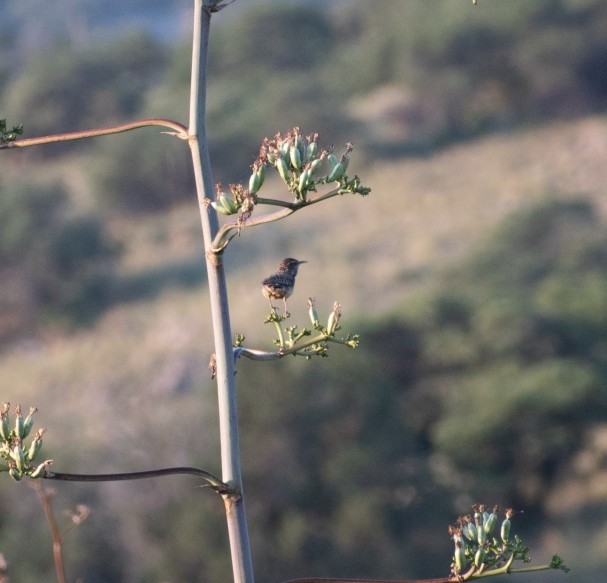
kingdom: Animalia
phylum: Chordata
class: Aves
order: Passeriformes
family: Troglodytidae
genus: Campylorhynchus
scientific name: Campylorhynchus brunneicapillus
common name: Cactus wren
